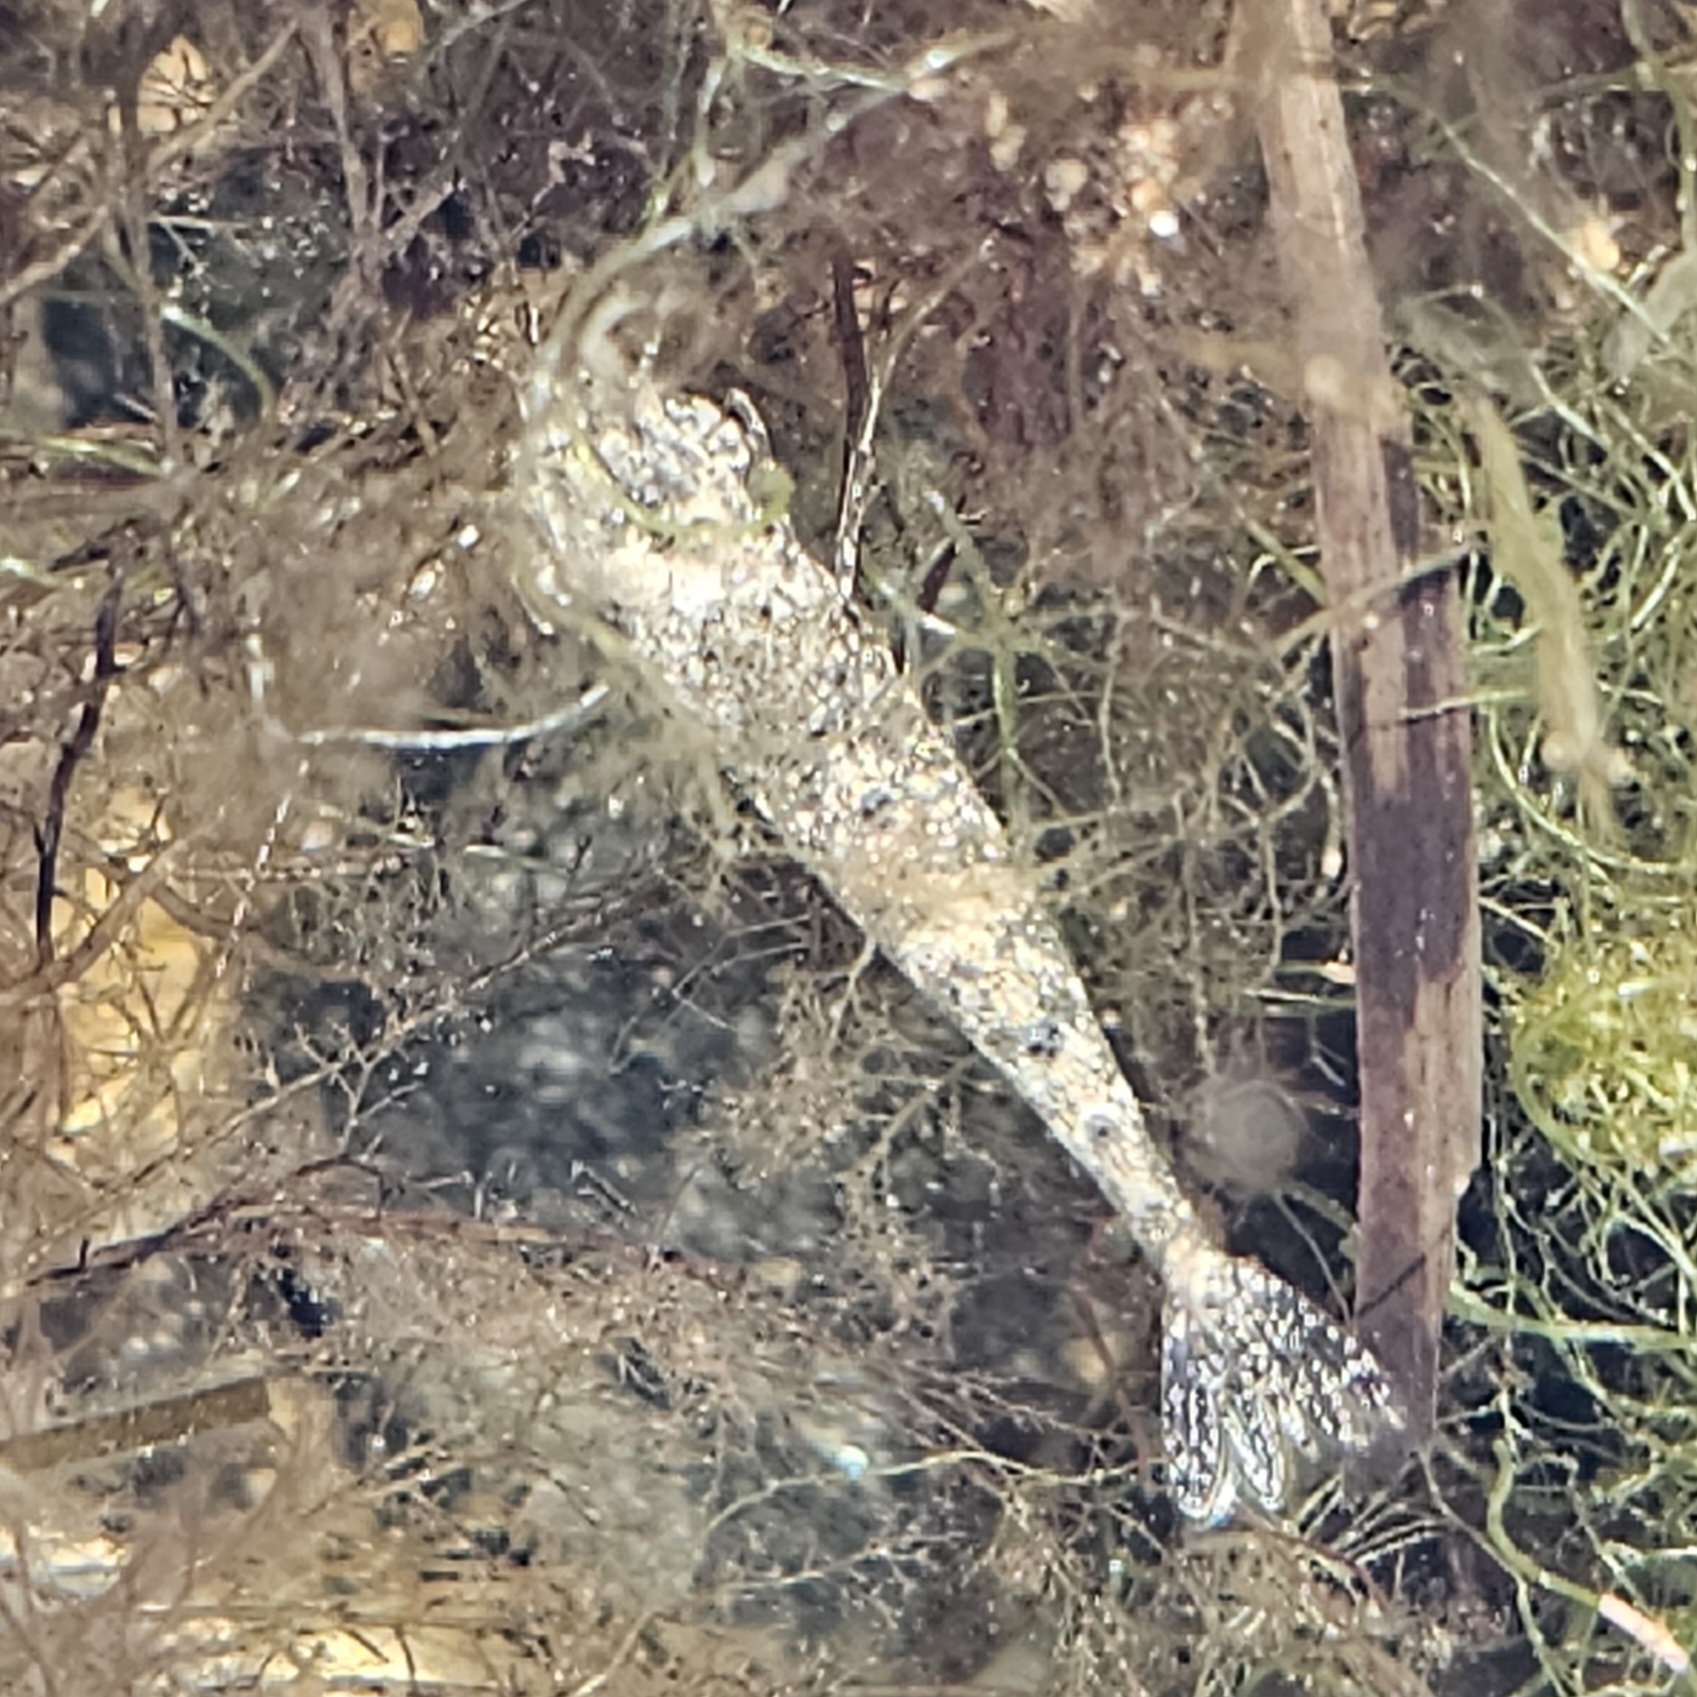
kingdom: Animalia
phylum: Arthropoda
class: Malacostraca
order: Decapoda
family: Crangonidae
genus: Crangon
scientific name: Crangon septemspinosa
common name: Bail shrimp
